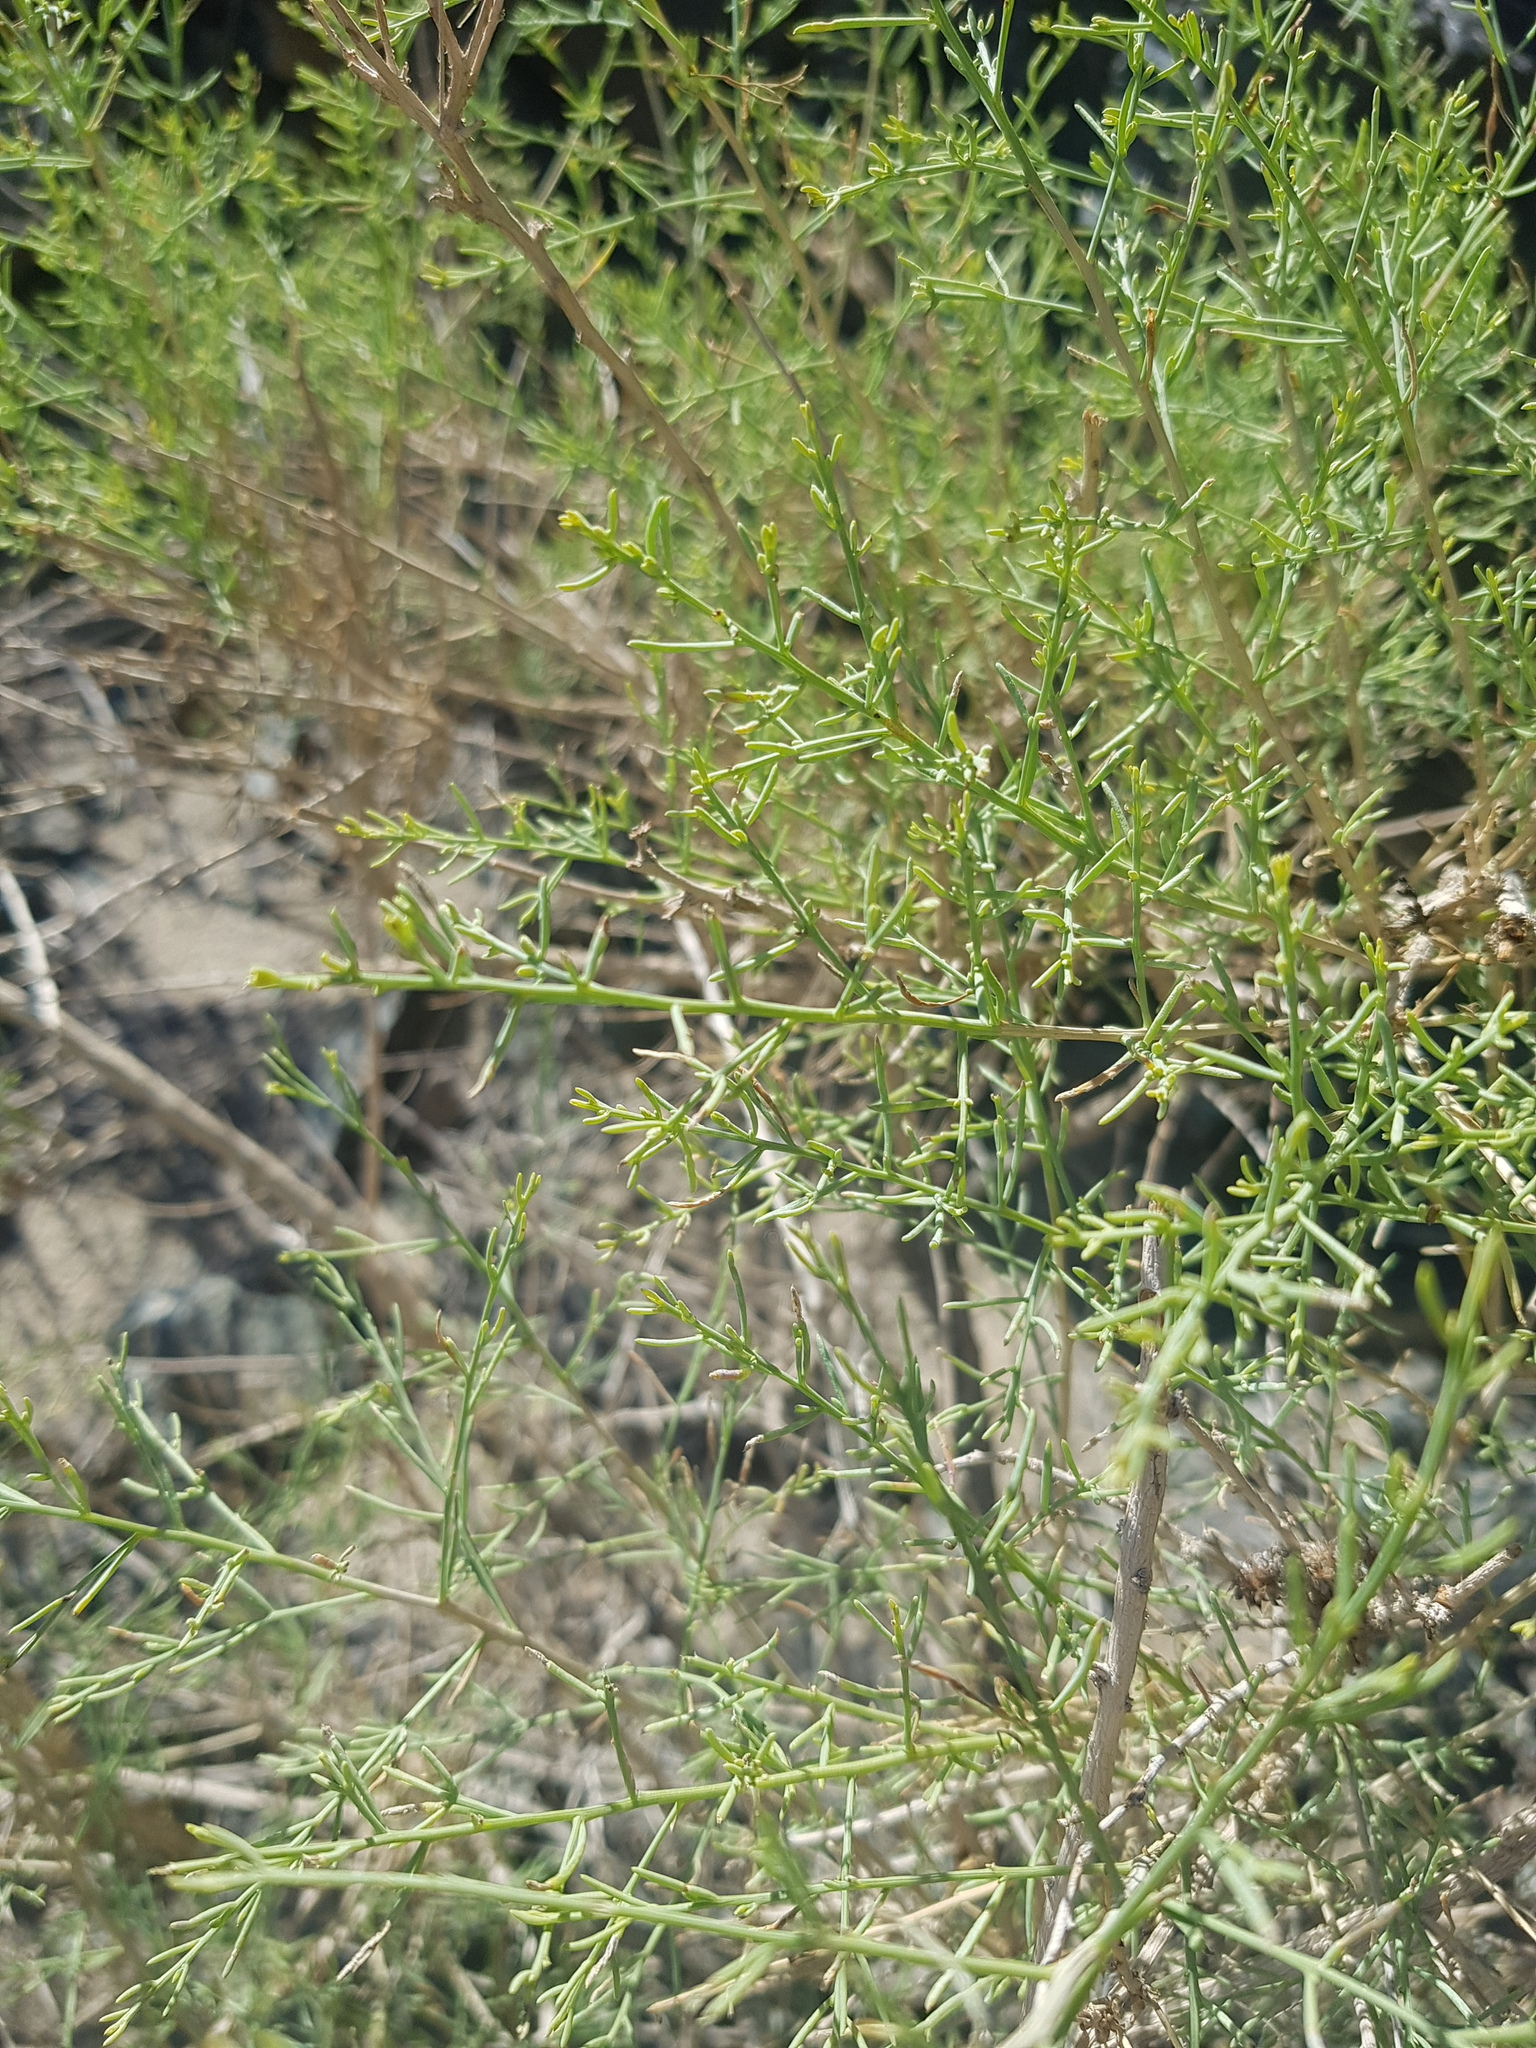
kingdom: Plantae
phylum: Tracheophyta
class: Magnoliopsida
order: Caryophyllales
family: Amaranthaceae
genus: Sympegma
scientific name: Sympegma regelii
